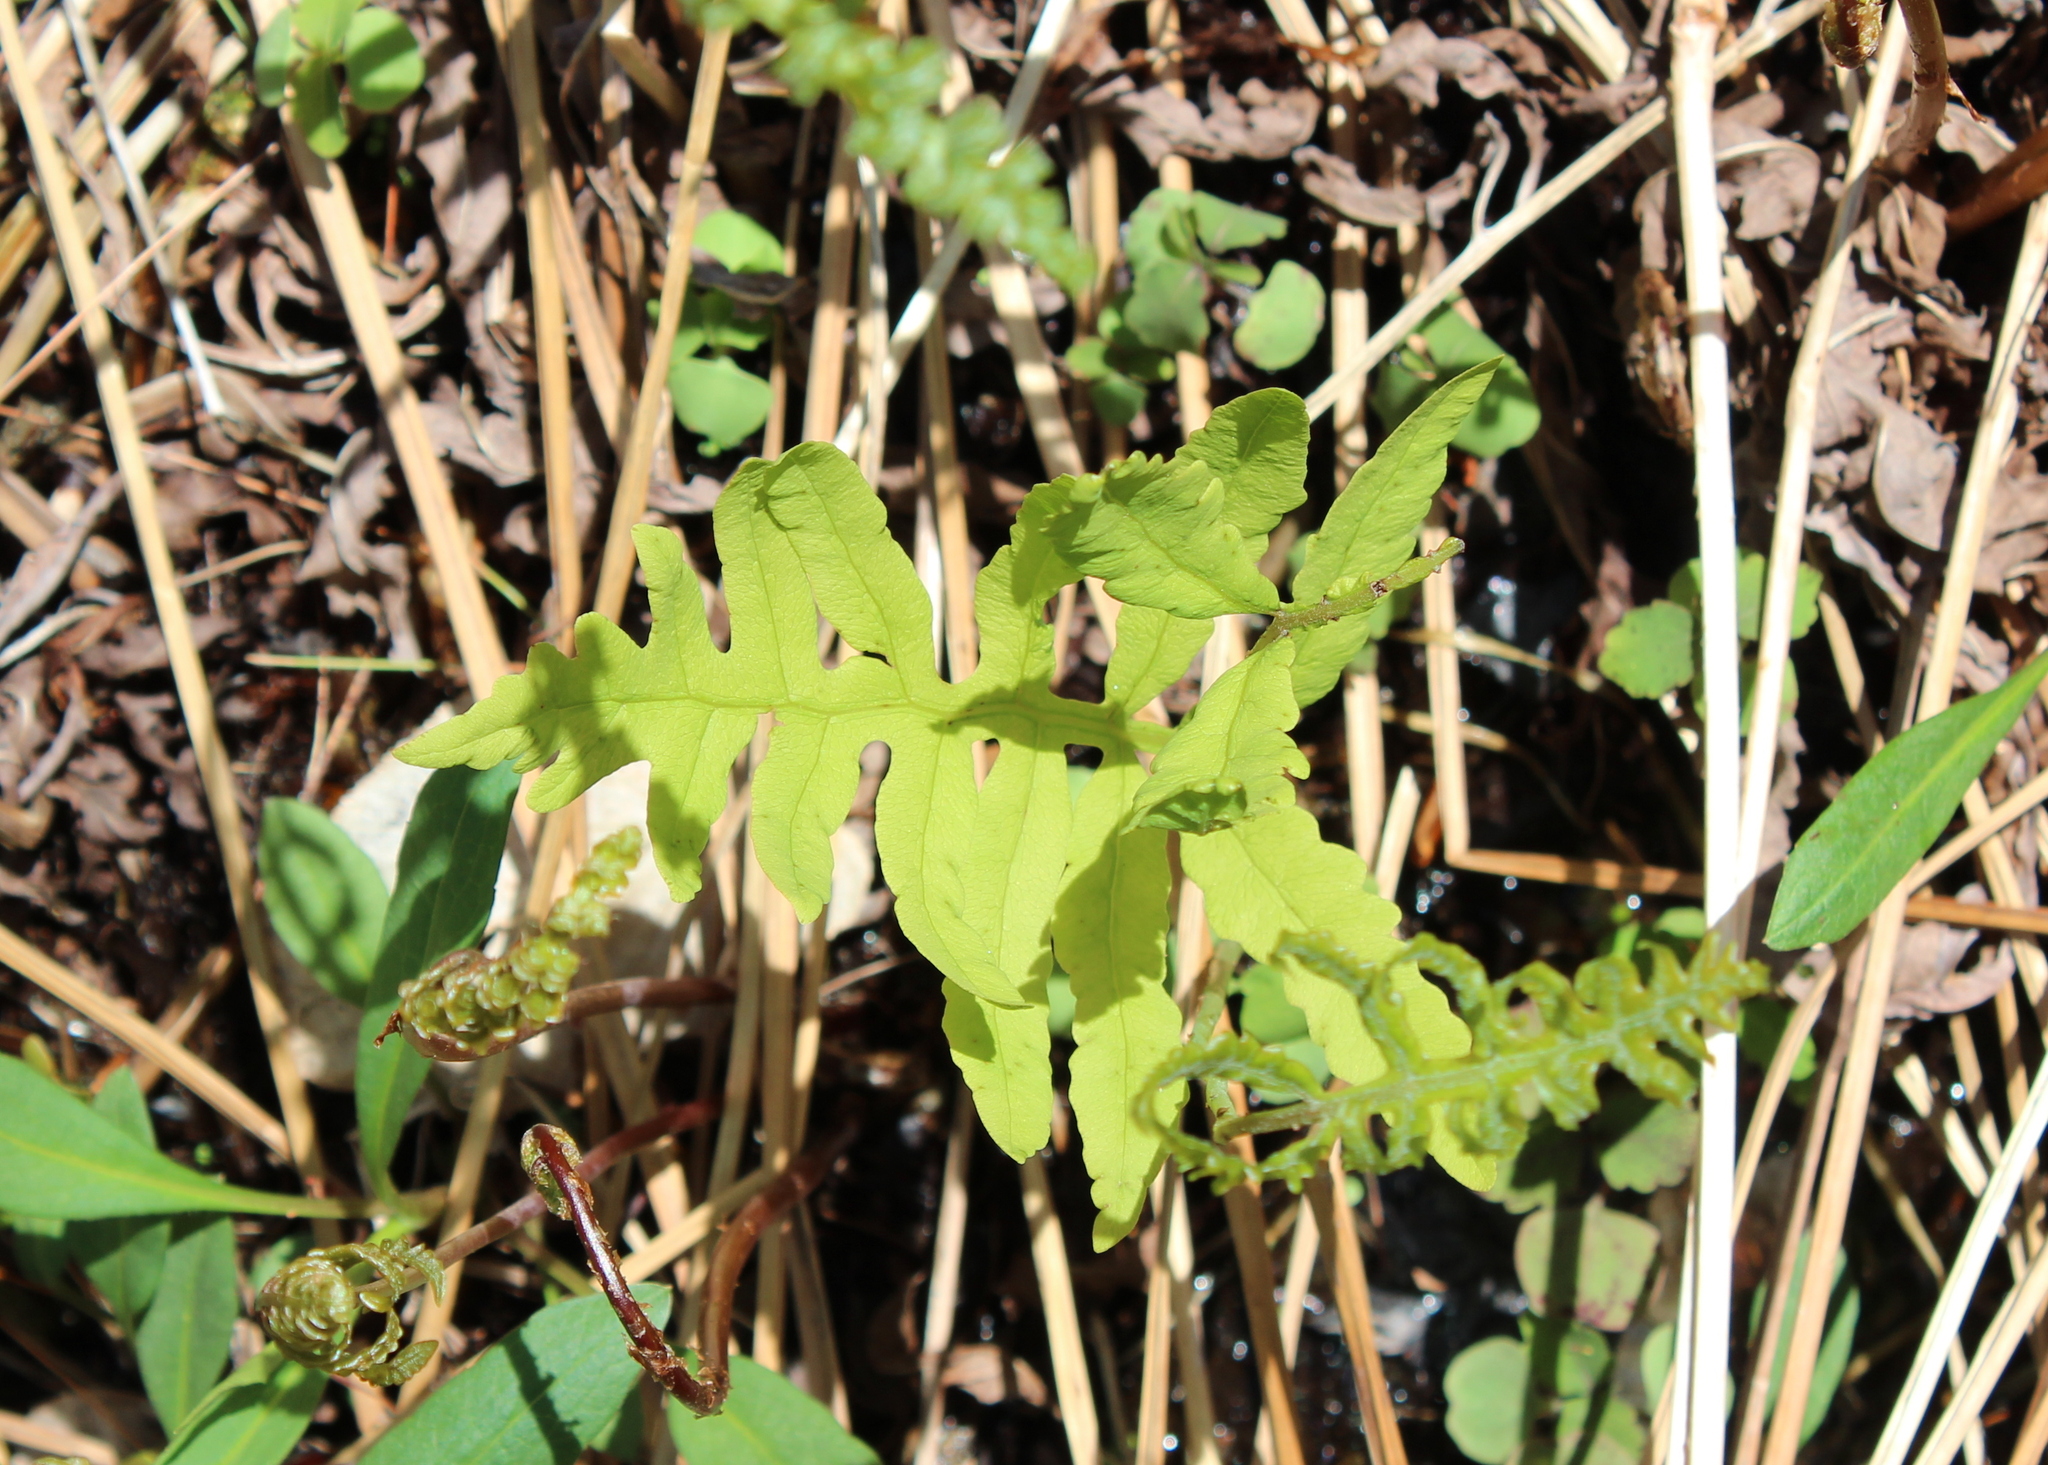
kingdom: Plantae
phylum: Tracheophyta
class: Polypodiopsida
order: Polypodiales
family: Onocleaceae
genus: Onoclea
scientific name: Onoclea sensibilis
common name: Sensitive fern
